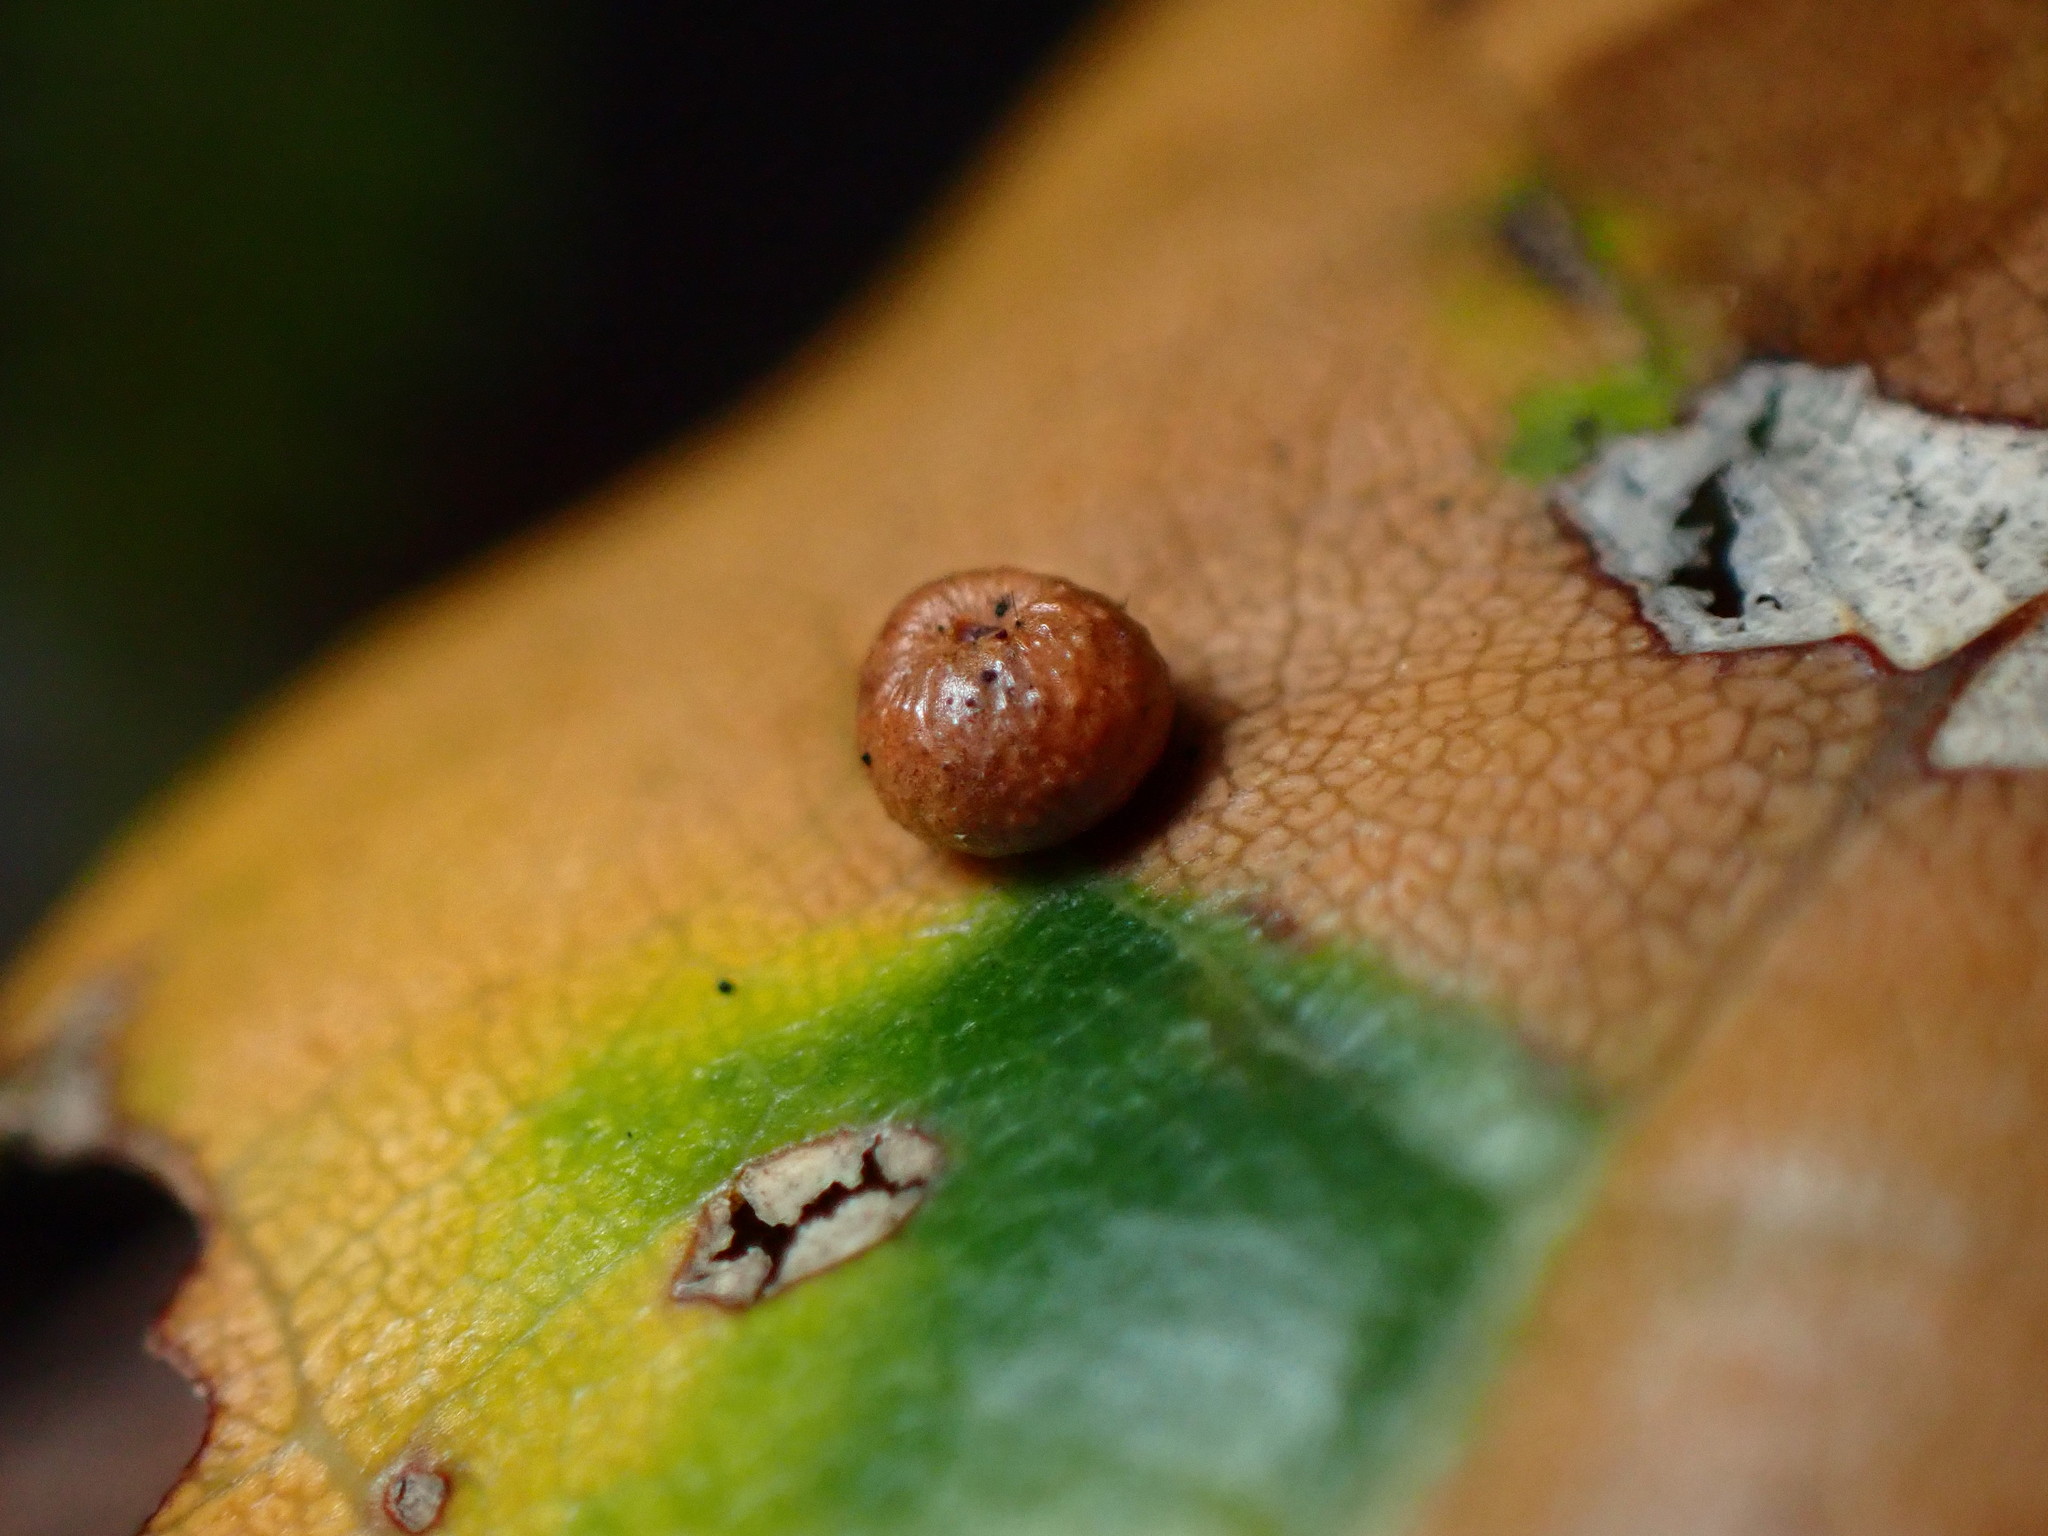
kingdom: Animalia
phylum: Arthropoda
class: Insecta
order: Hymenoptera
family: Cynipidae
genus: Dryocosmus
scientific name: Dryocosmus
